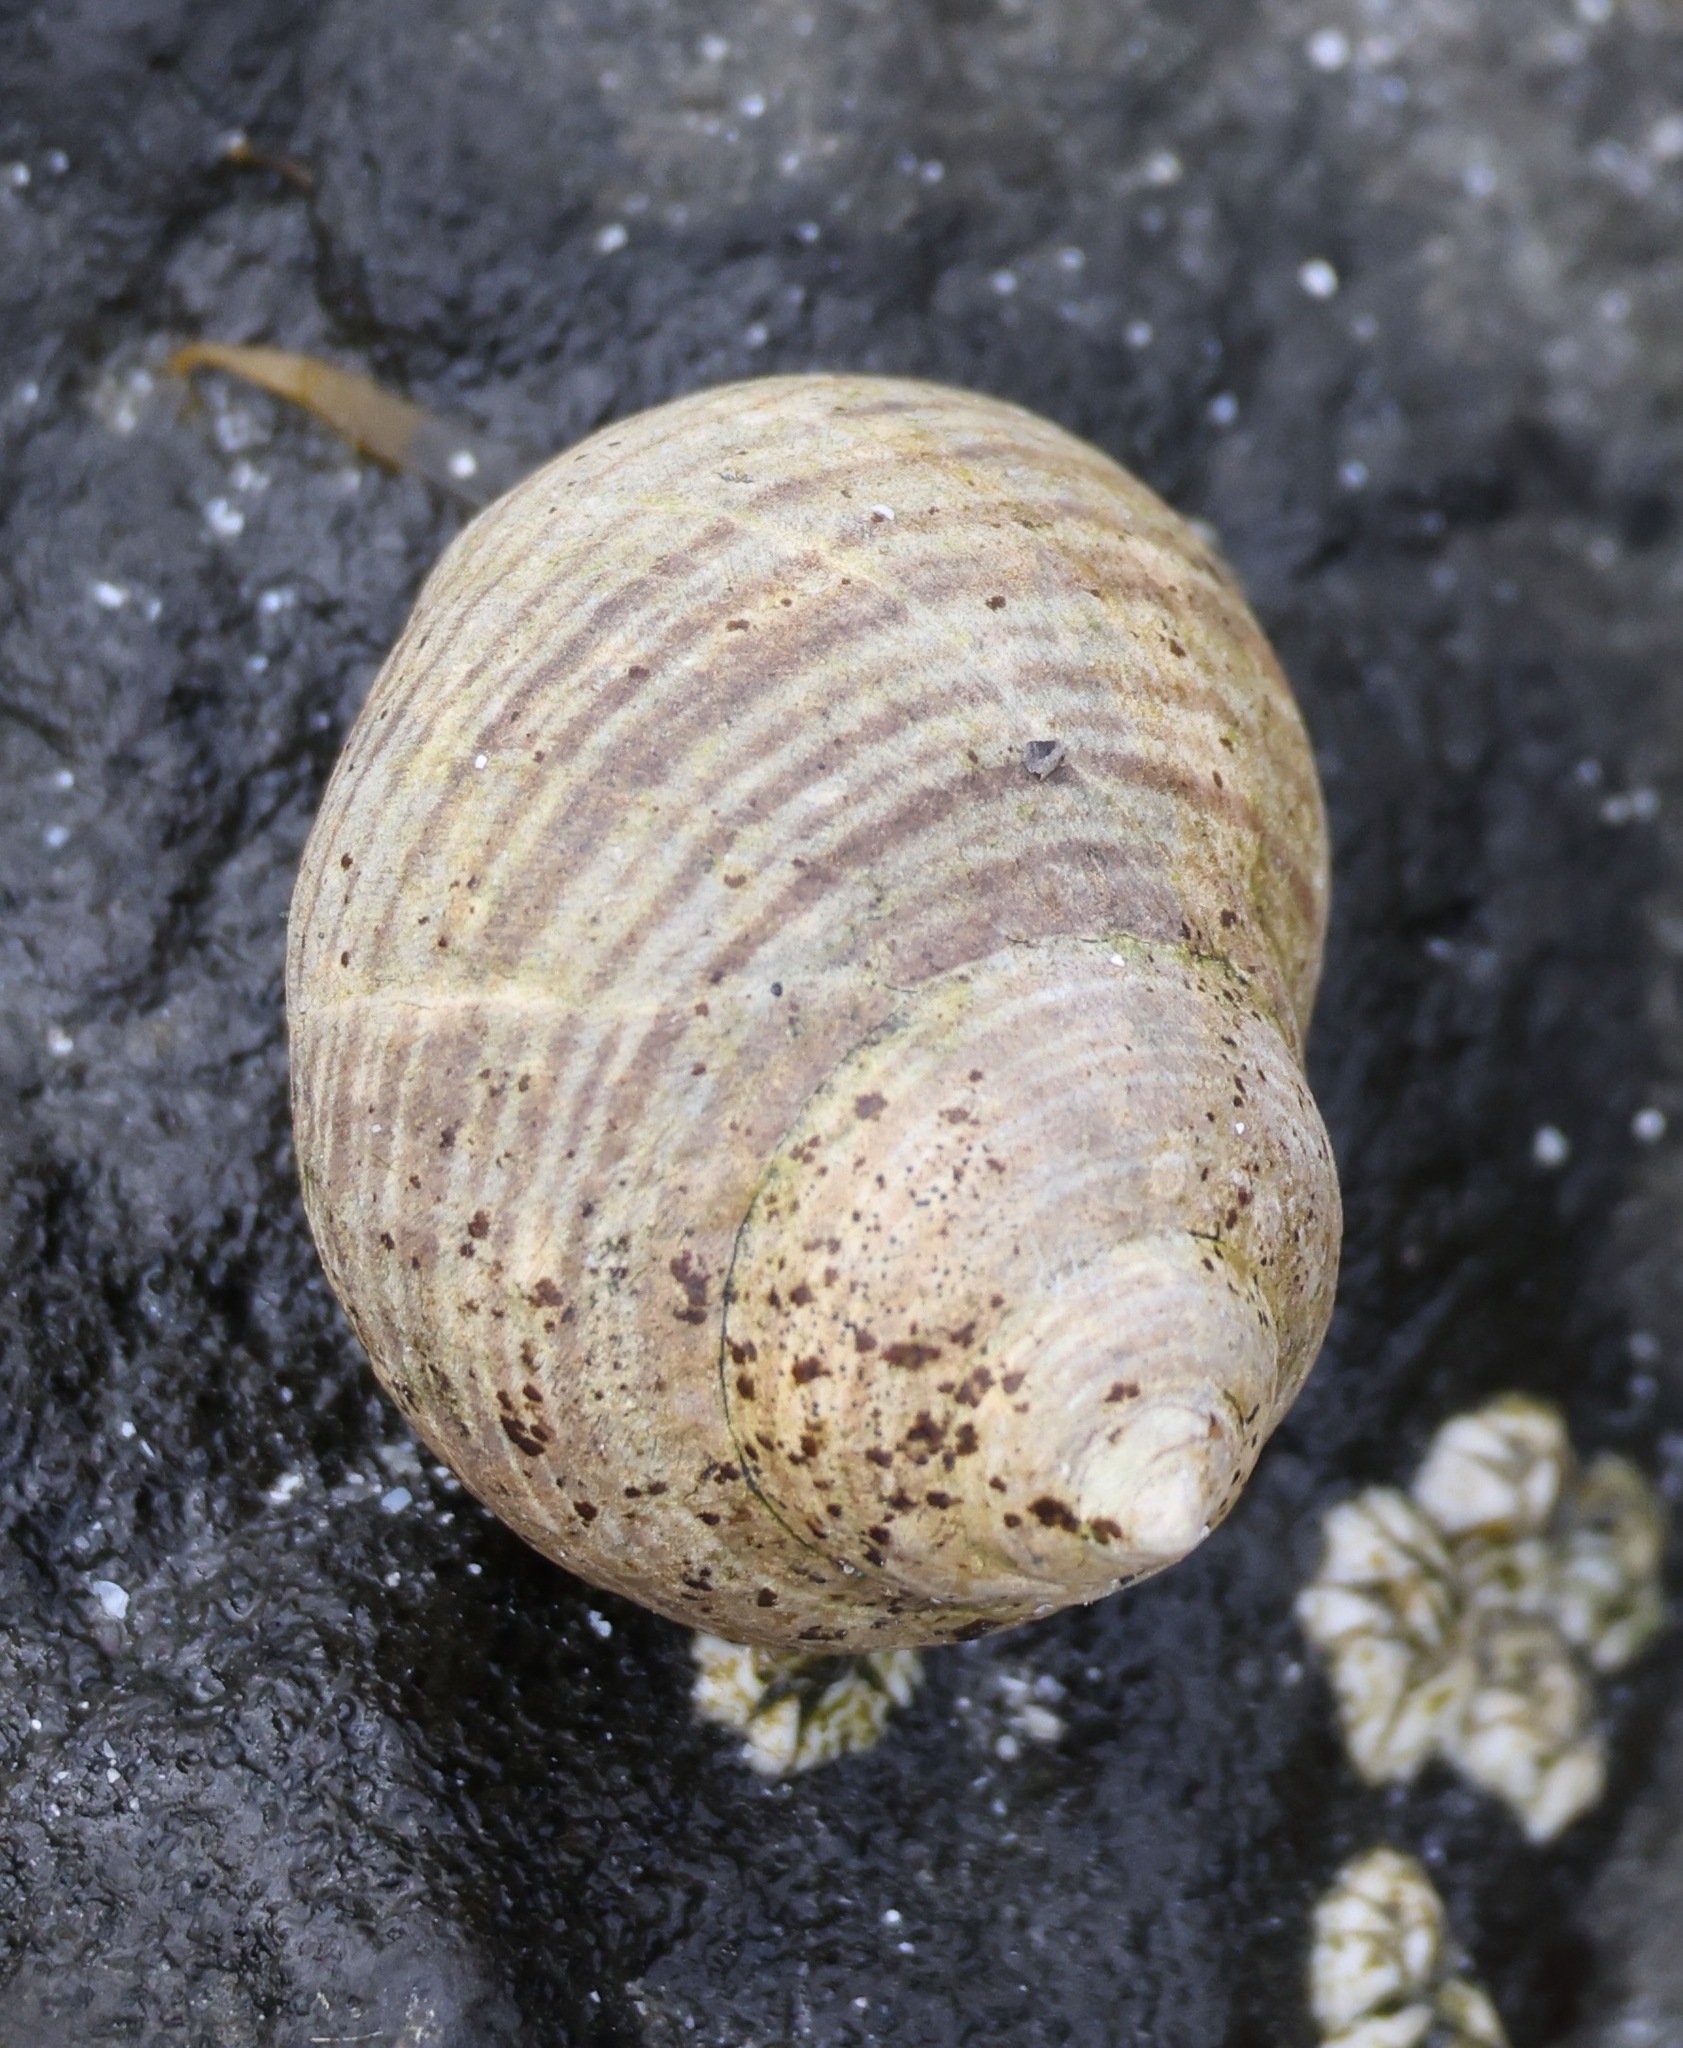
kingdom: Animalia
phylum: Mollusca
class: Gastropoda
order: Littorinimorpha
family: Littorinidae
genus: Littorina
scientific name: Littorina littorea
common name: Common periwinkle
